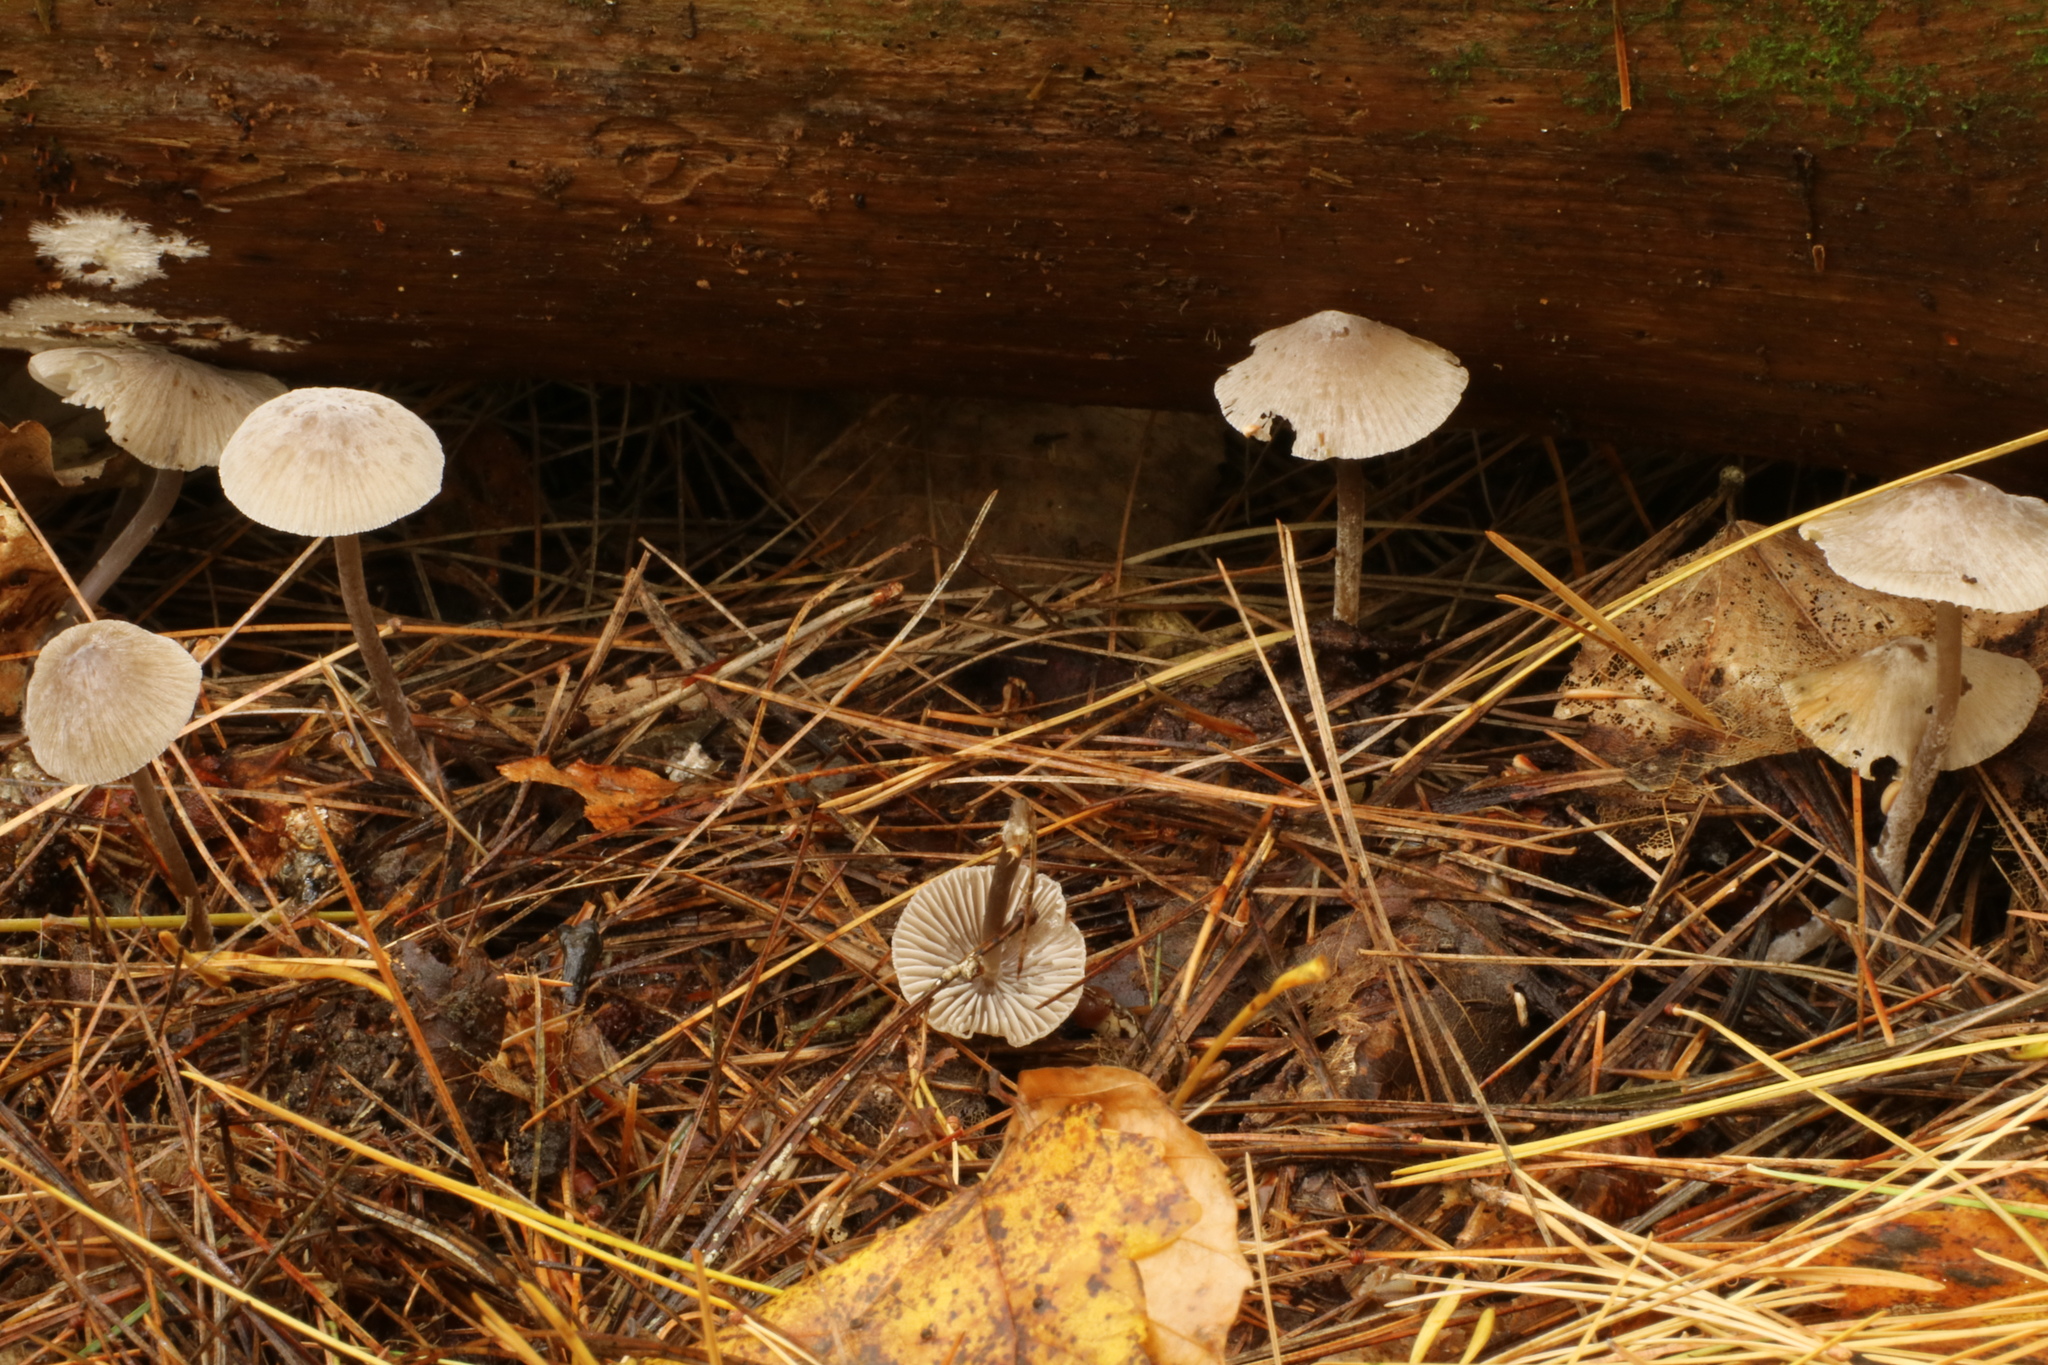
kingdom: Fungi
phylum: Basidiomycota
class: Agaricomycetes
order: Agaricales
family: Mycenaceae
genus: Mycena
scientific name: Mycena leptocephala
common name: Nitrous bonnet
